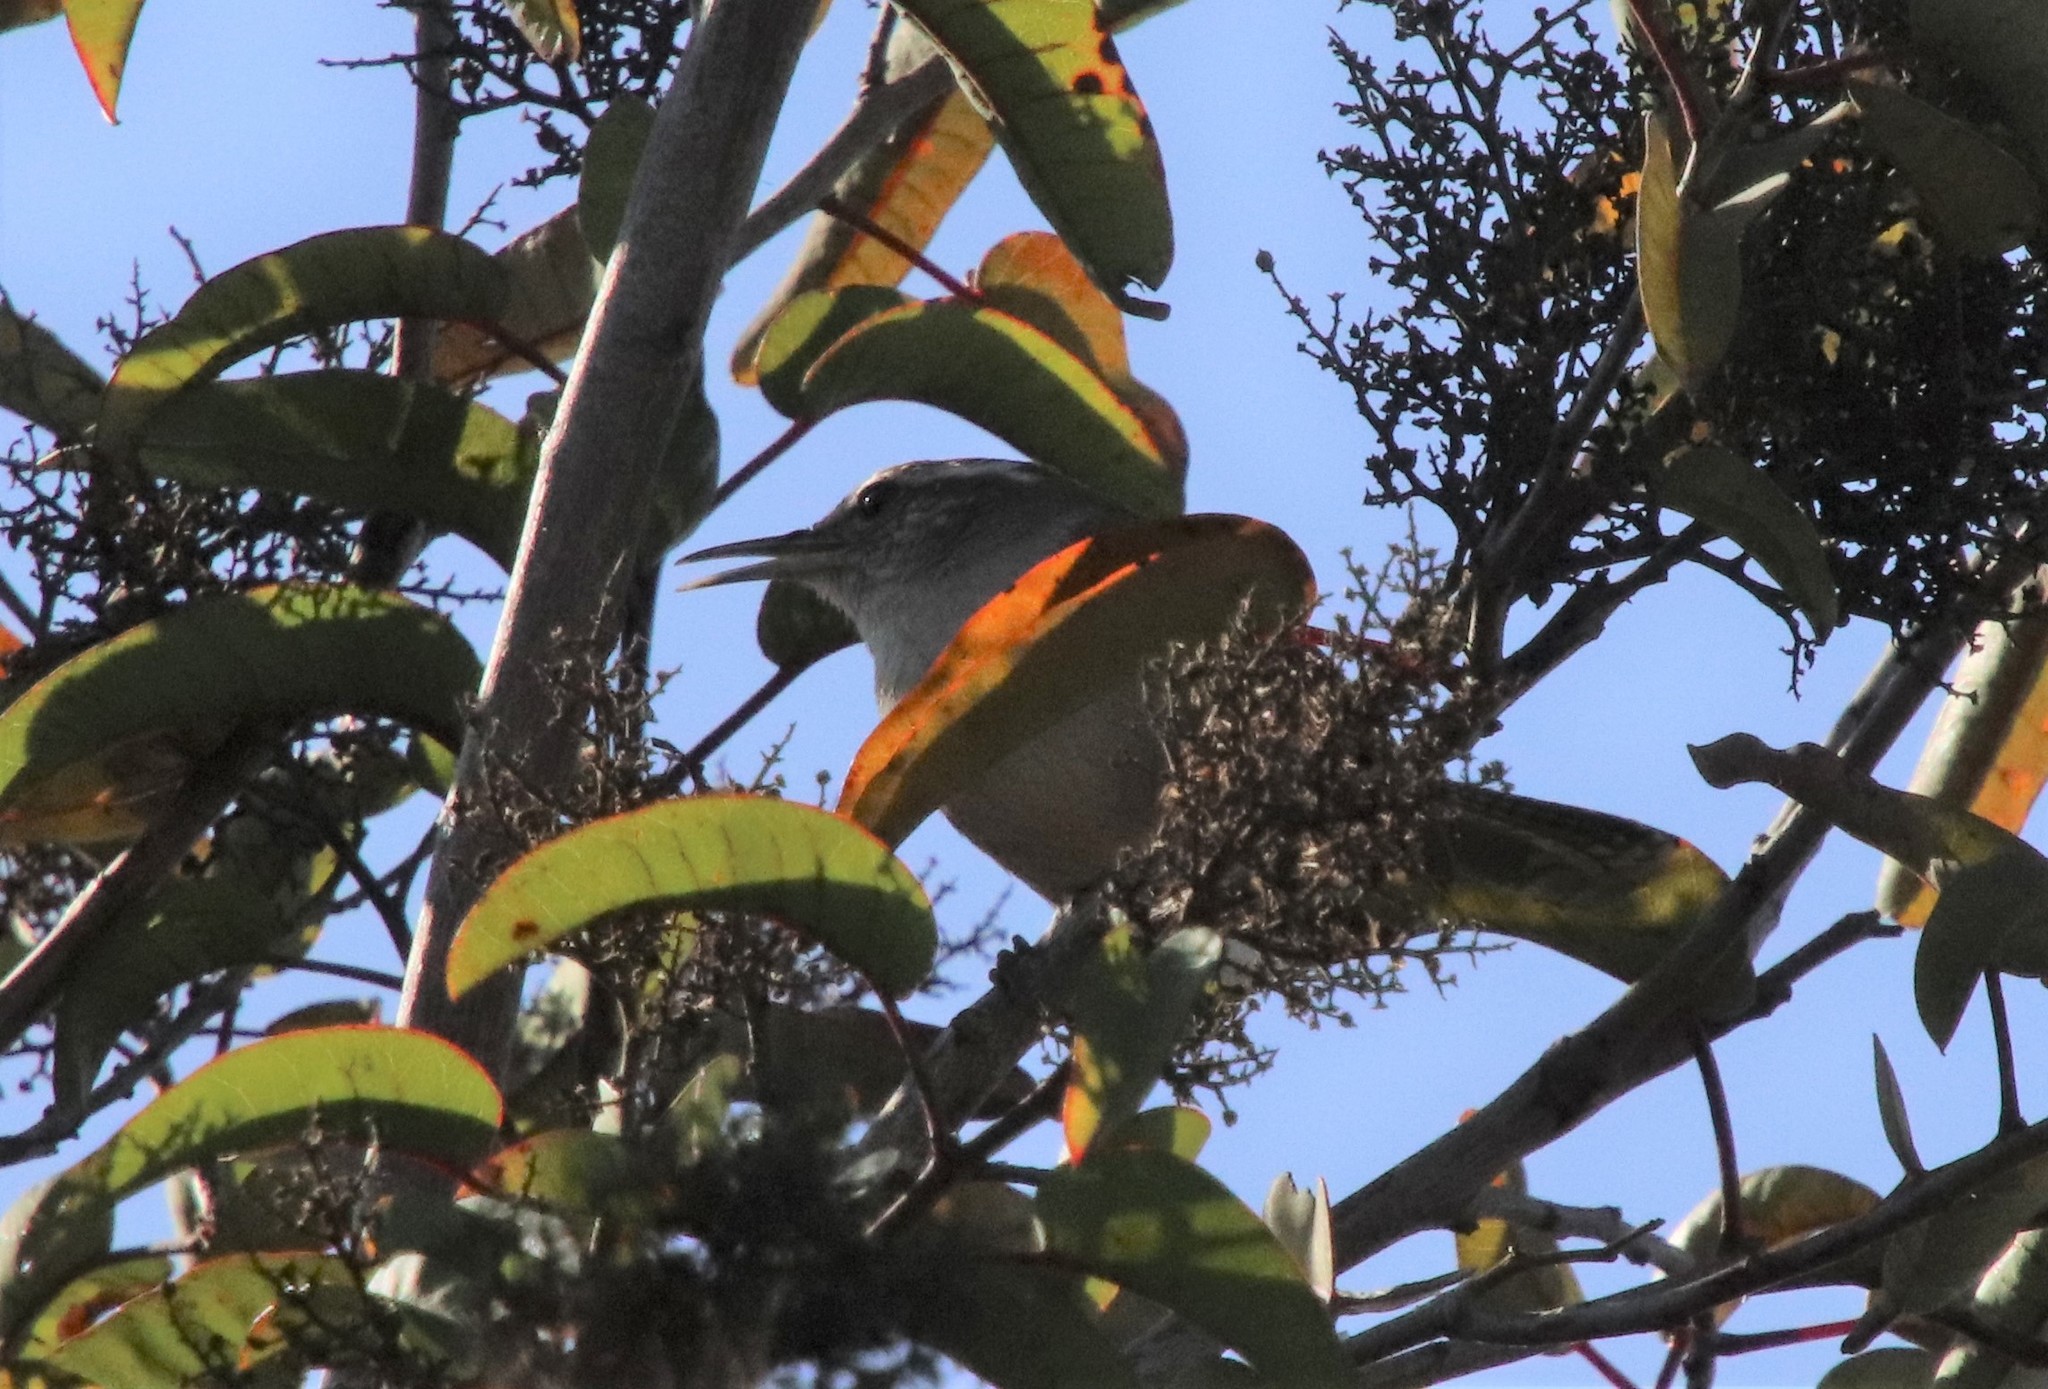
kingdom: Animalia
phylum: Chordata
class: Aves
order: Passeriformes
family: Troglodytidae
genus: Thryomanes
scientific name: Thryomanes bewickii
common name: Bewick's wren
